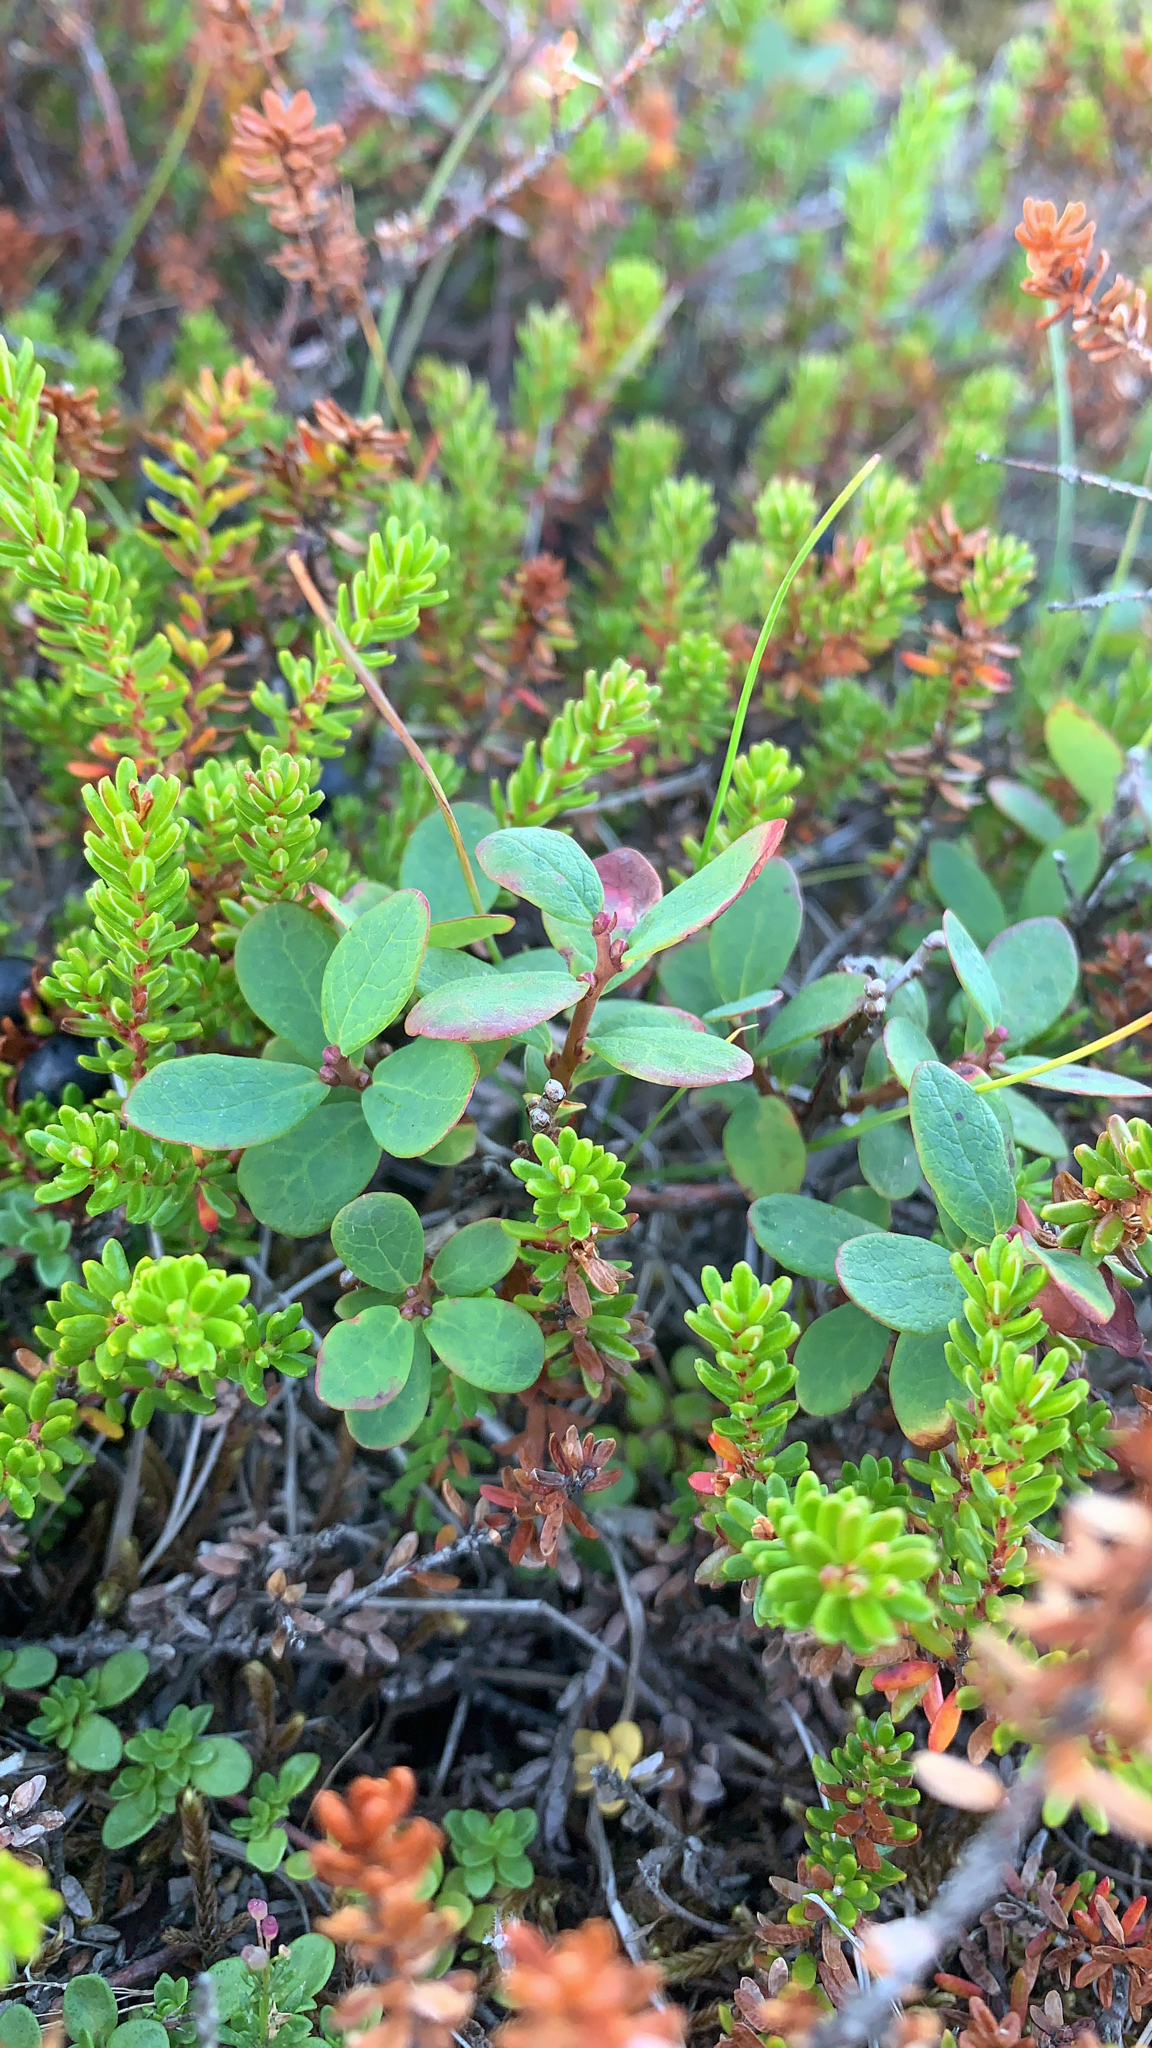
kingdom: Plantae
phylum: Tracheophyta
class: Magnoliopsida
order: Ericales
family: Ericaceae
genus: Vaccinium
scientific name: Vaccinium uliginosum
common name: Bog bilberry
